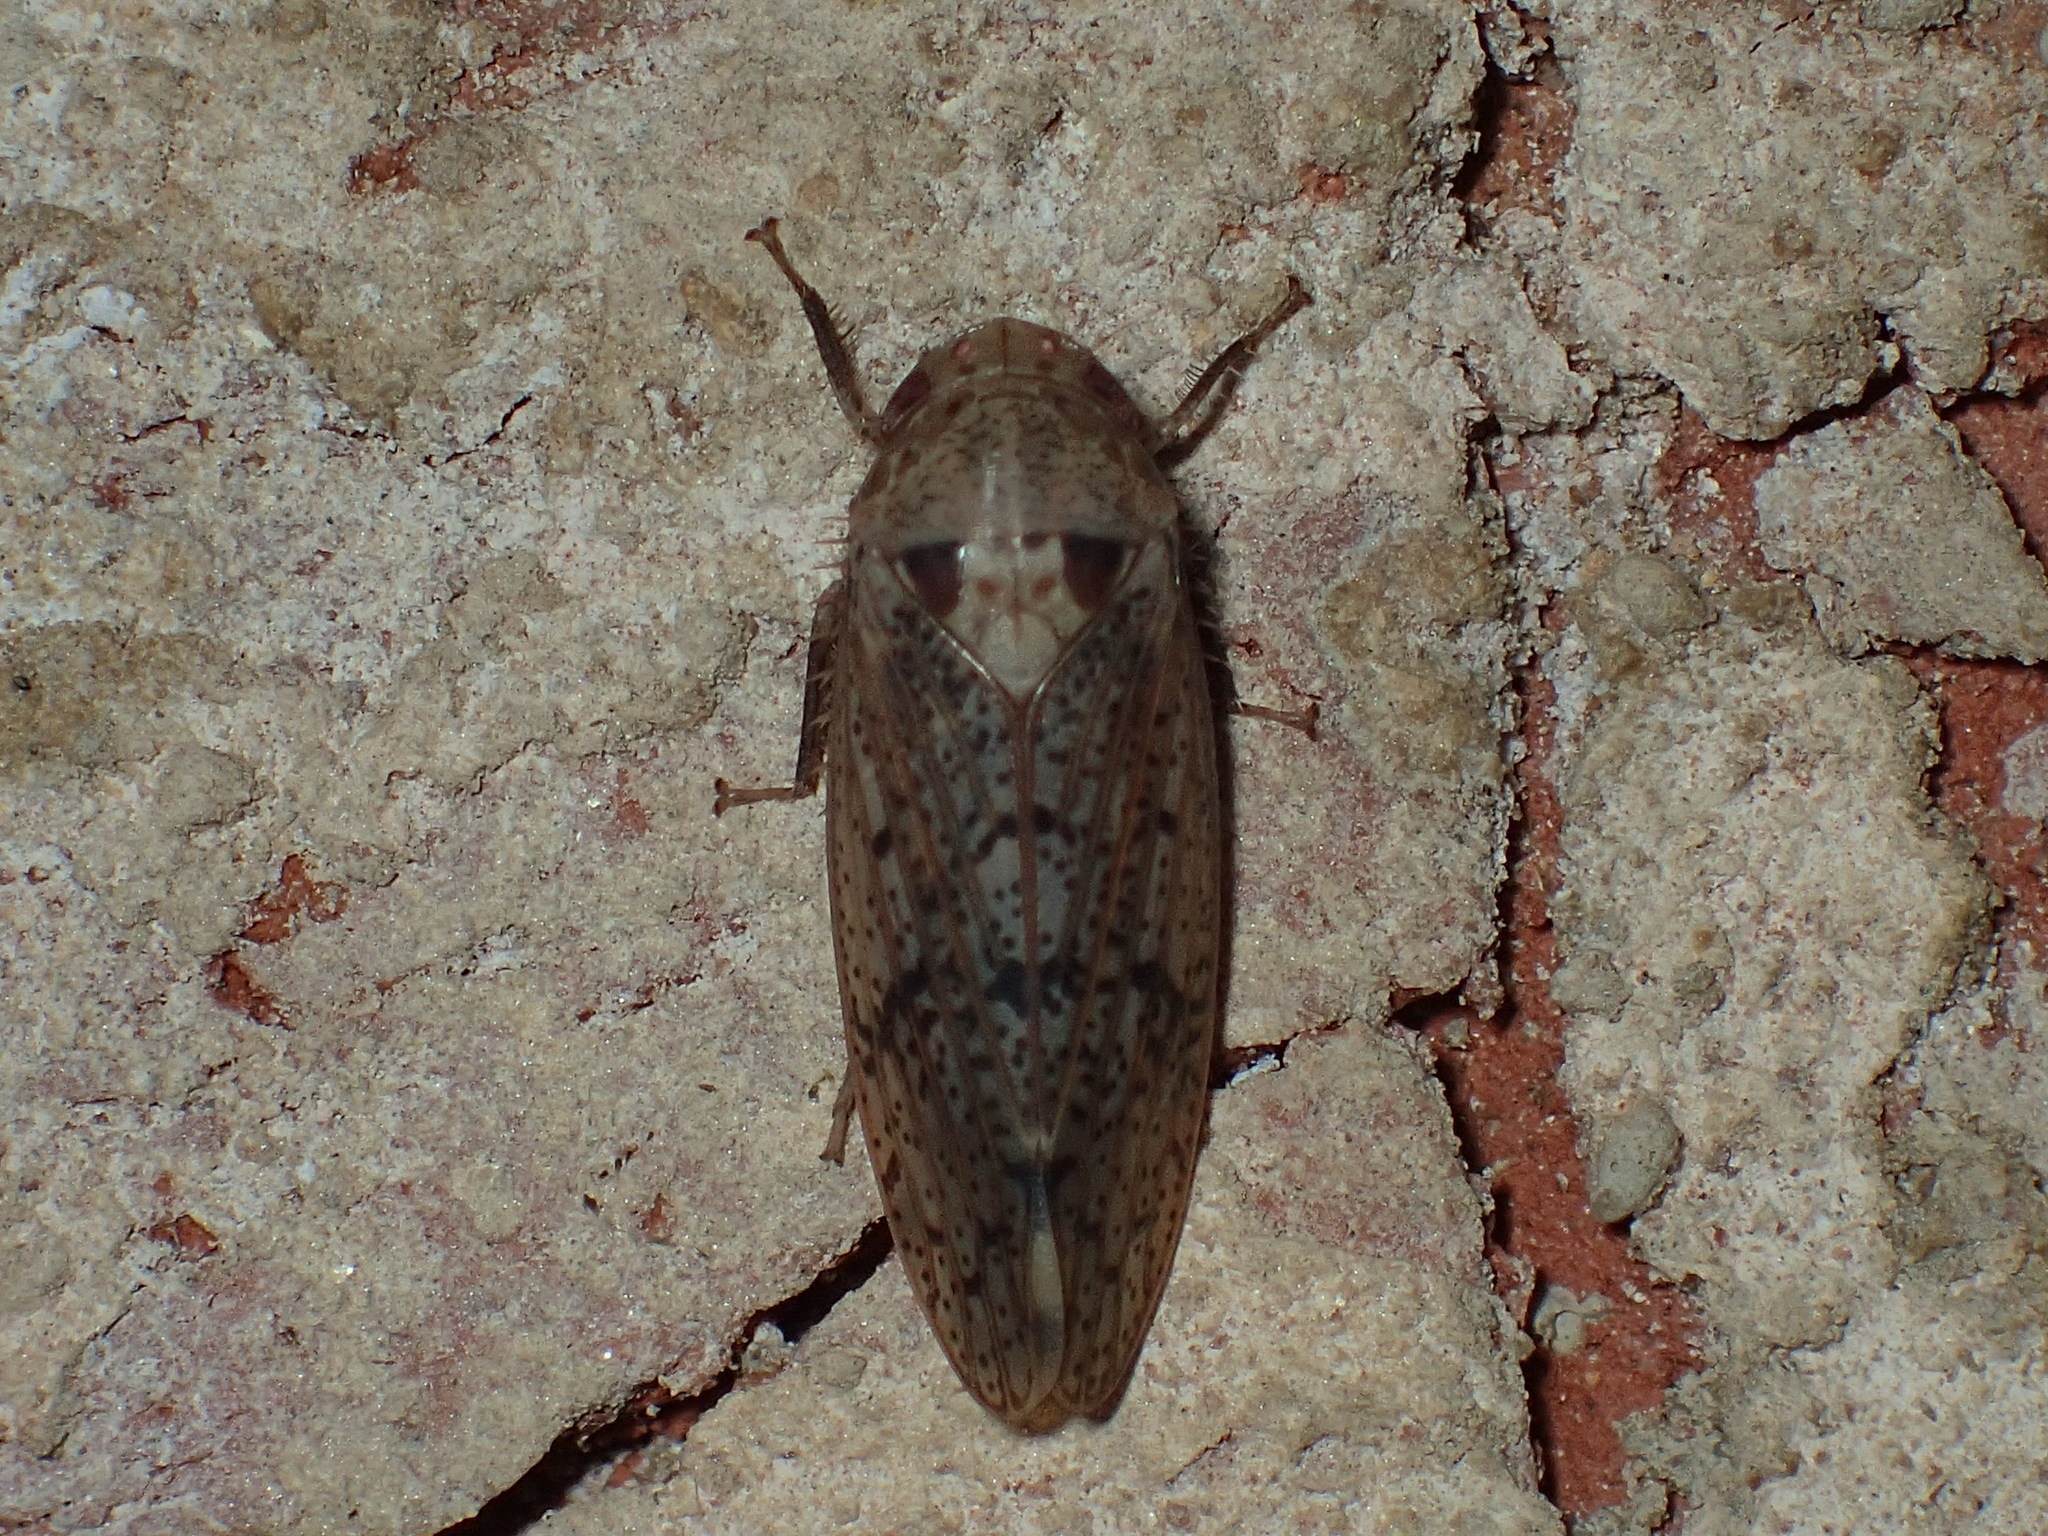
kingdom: Animalia
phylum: Arthropoda
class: Insecta
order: Hemiptera
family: Cicadellidae
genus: Ponana
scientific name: Ponana puncticollis
